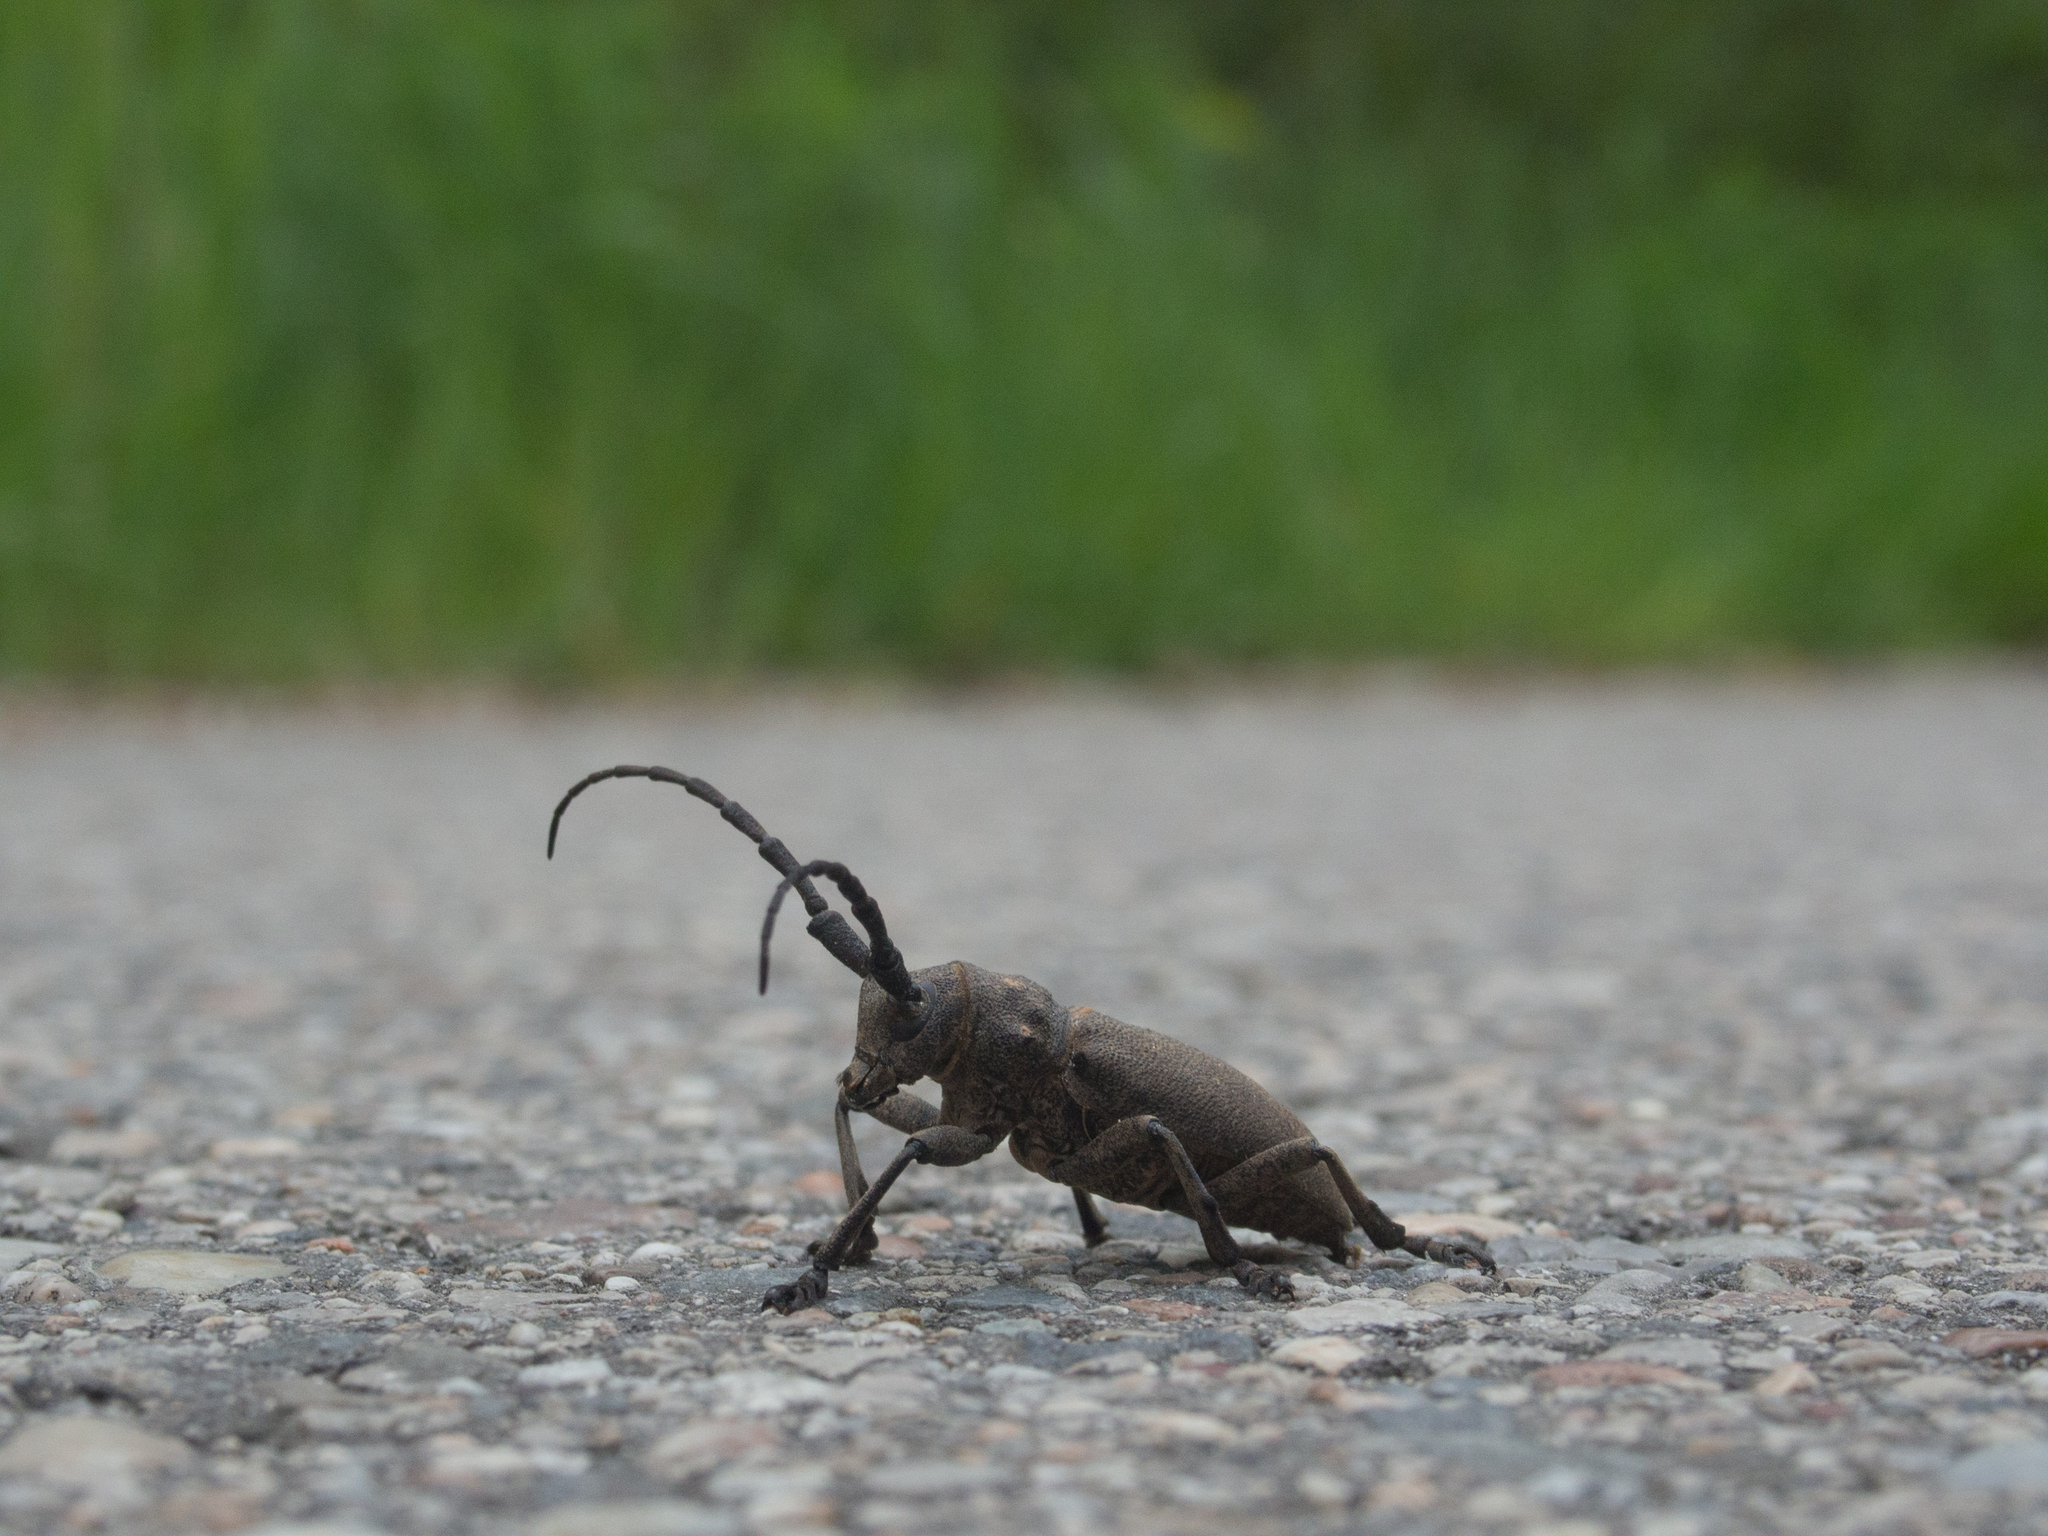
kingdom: Animalia
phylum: Arthropoda
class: Insecta
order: Coleoptera
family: Cerambycidae
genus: Lamia
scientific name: Lamia textor
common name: Weaver beetle
